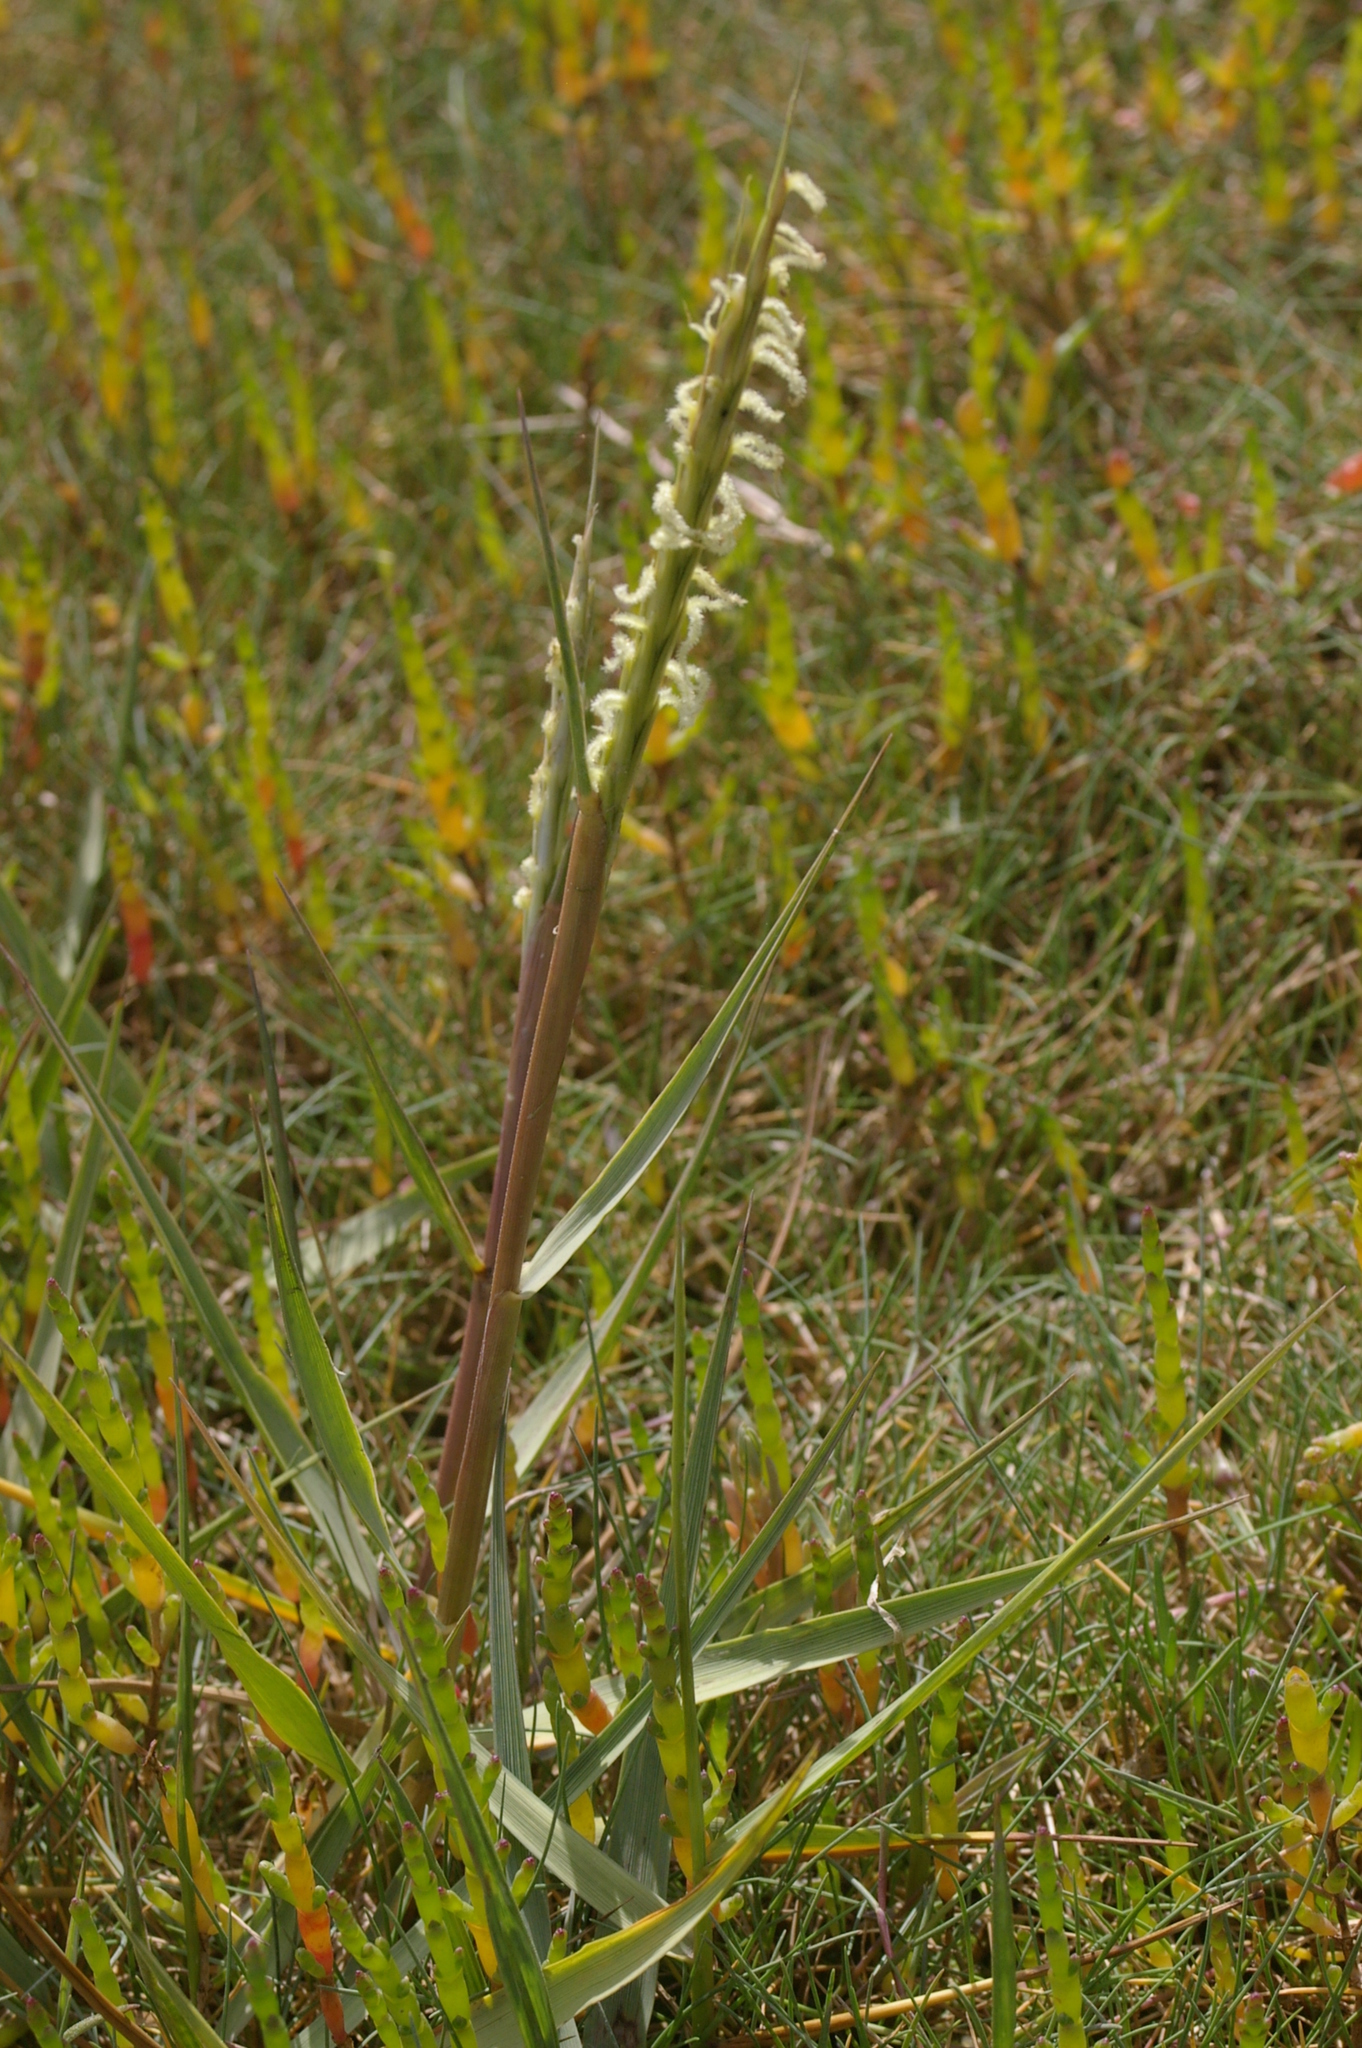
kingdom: Plantae
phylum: Tracheophyta
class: Liliopsida
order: Poales
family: Poaceae
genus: Sporobolus
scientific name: Sporobolus anglicus
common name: English cordgrass
